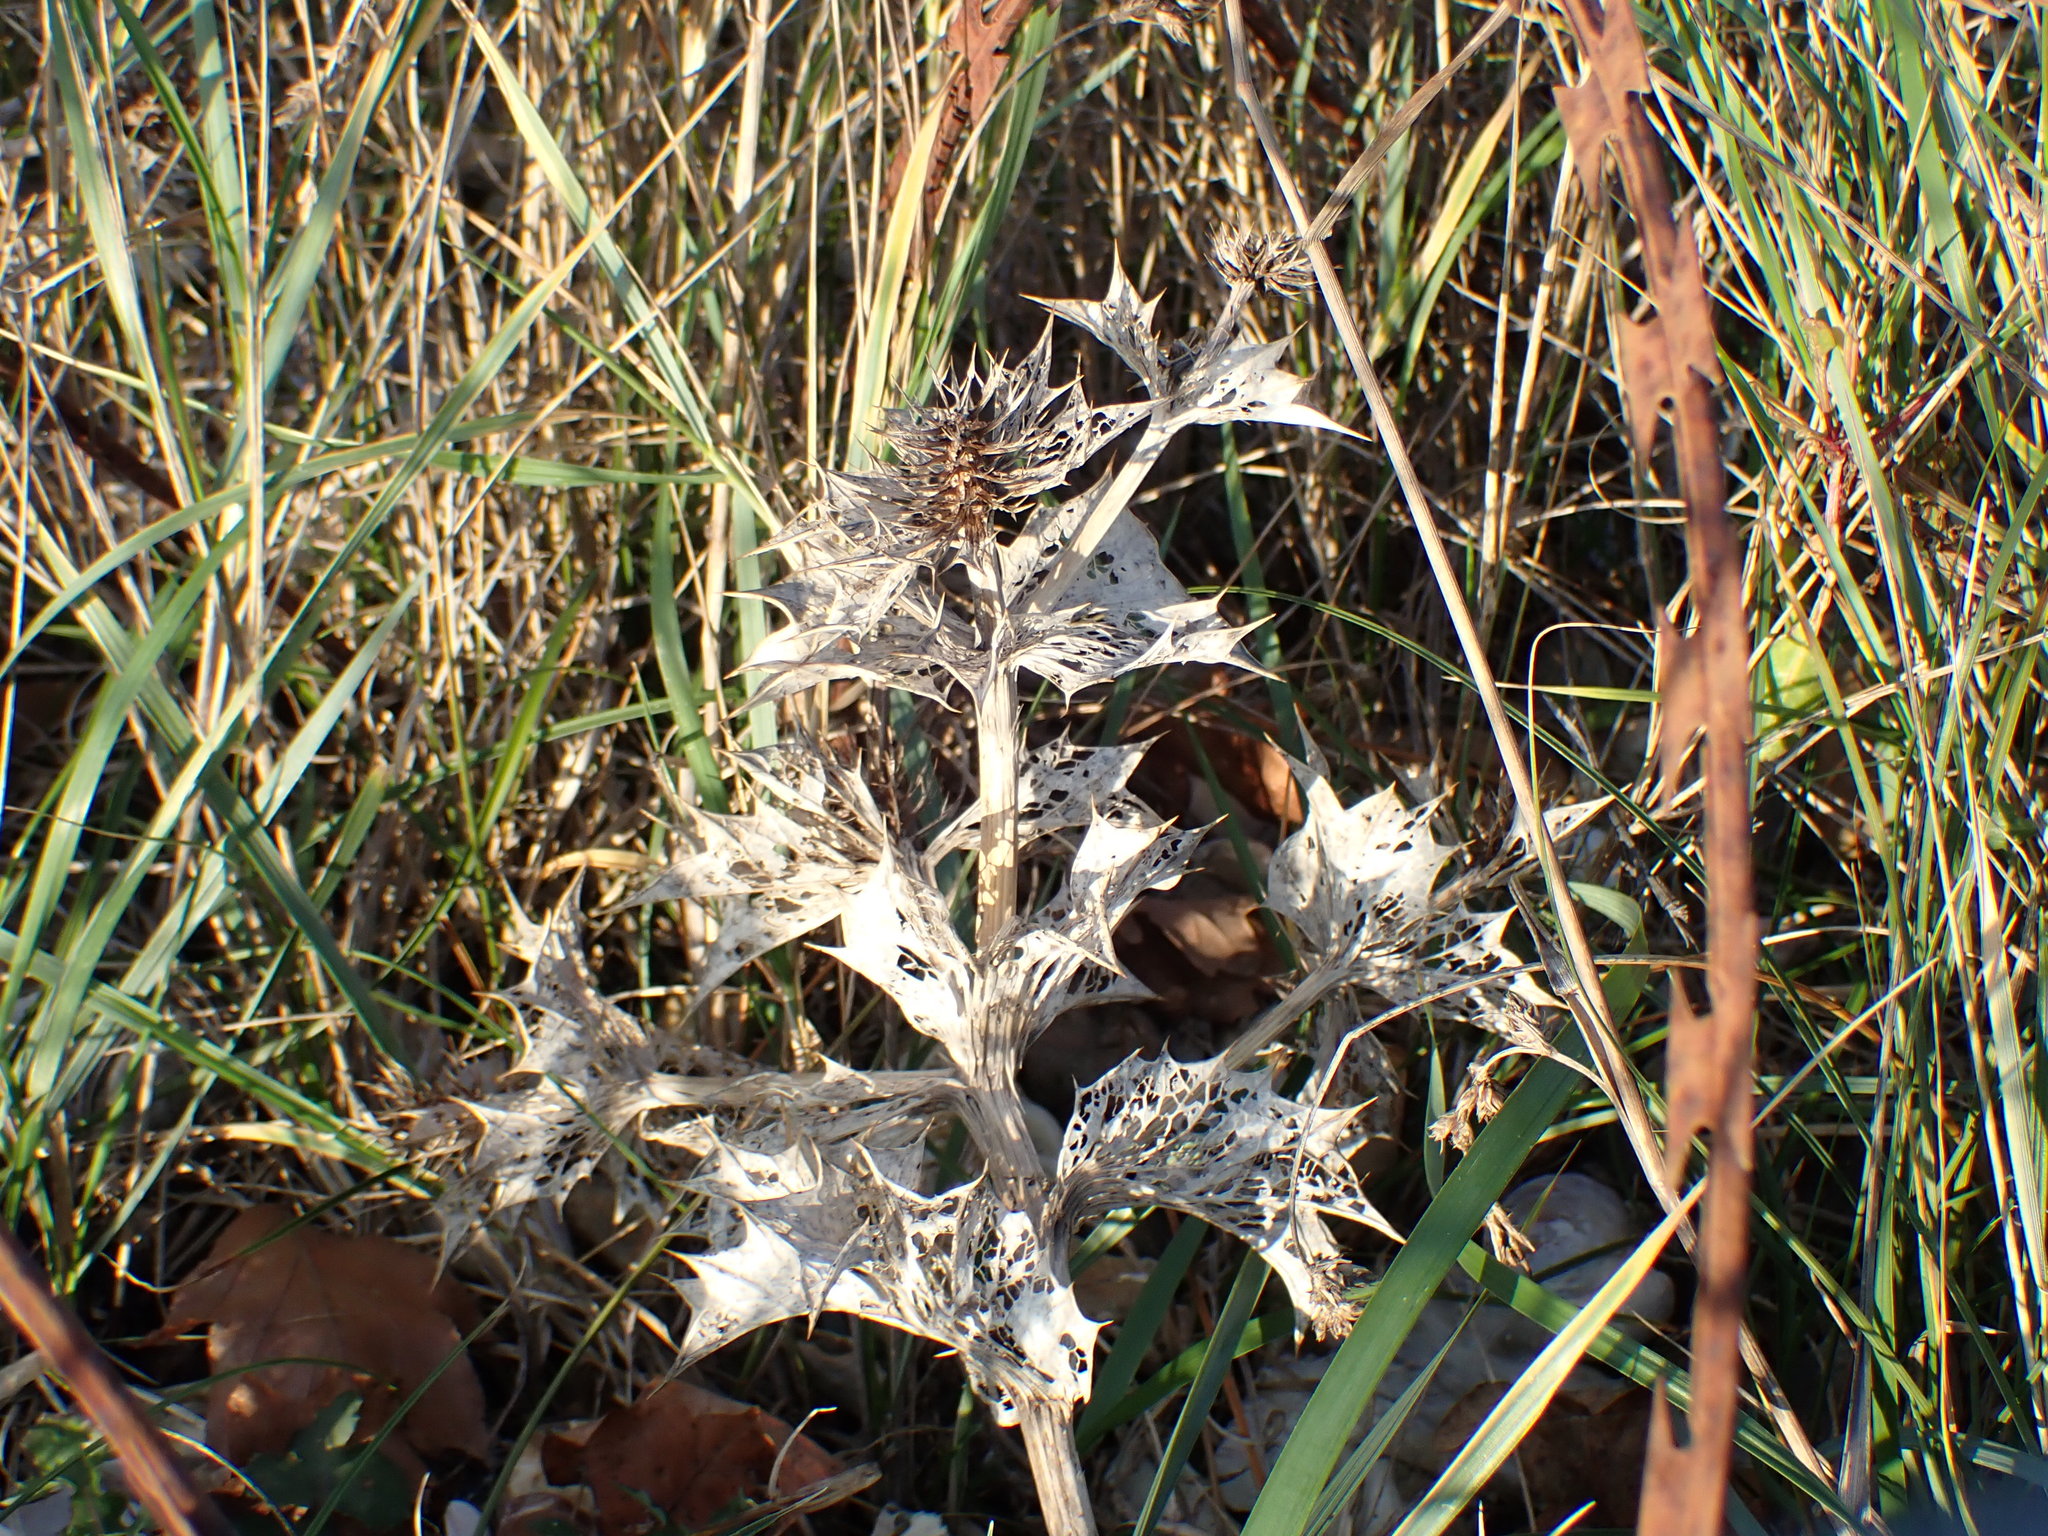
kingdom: Plantae
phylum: Tracheophyta
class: Magnoliopsida
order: Apiales
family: Apiaceae
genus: Eryngium
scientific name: Eryngium maritimum
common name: Sea-holly
